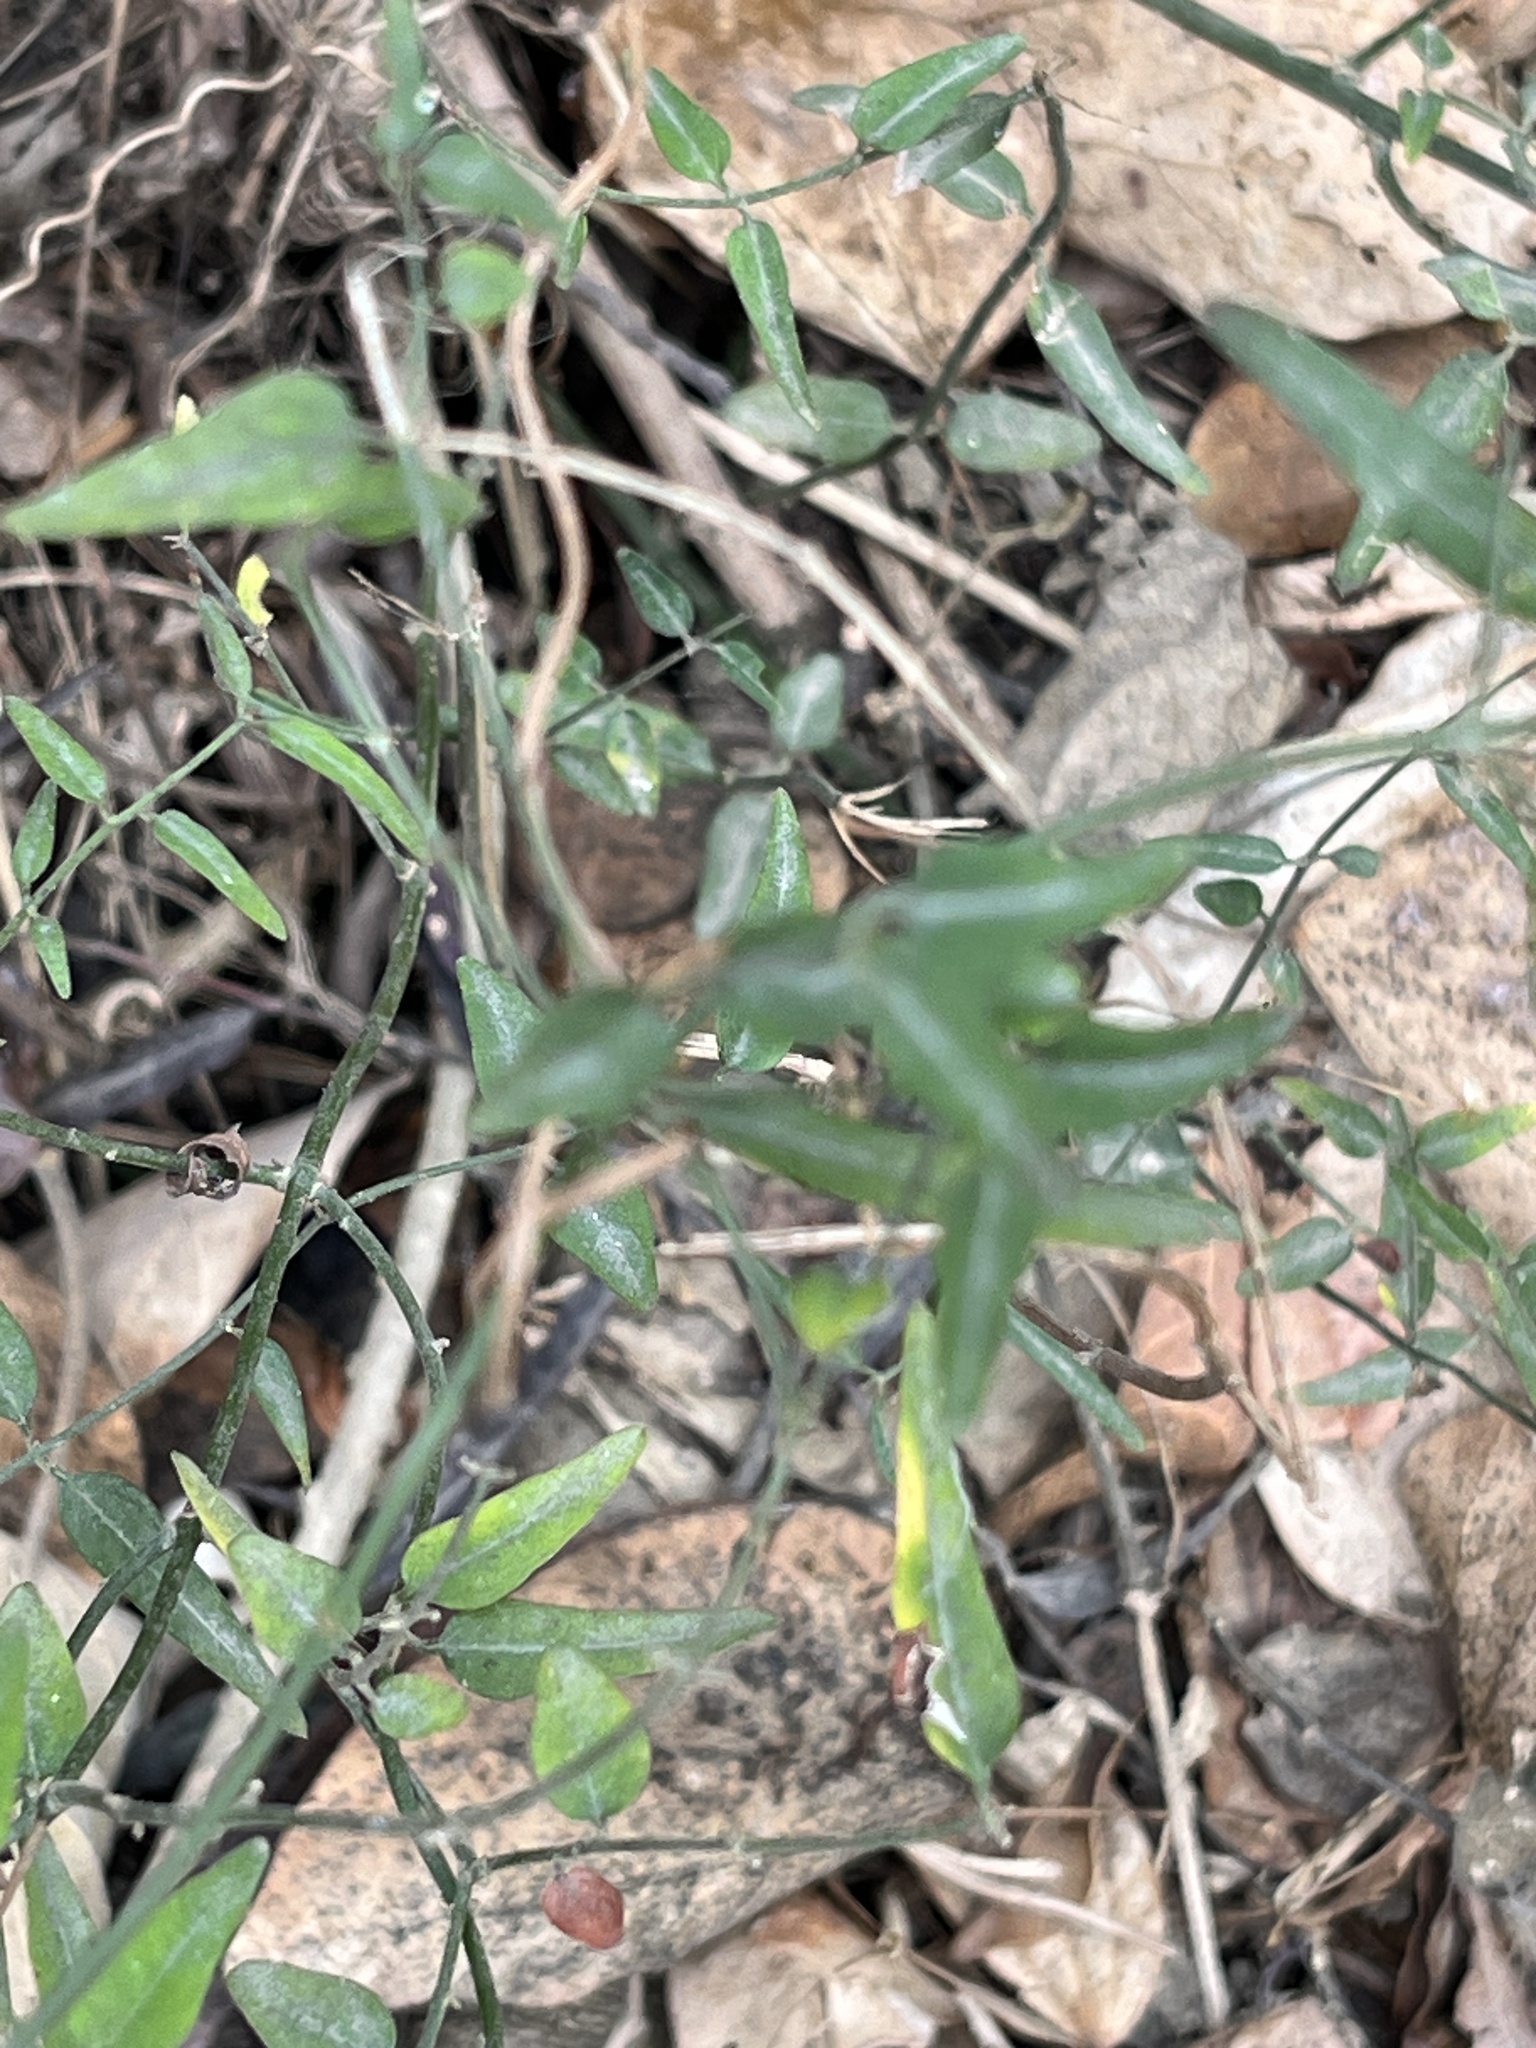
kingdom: Plantae
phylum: Tracheophyta
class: Magnoliopsida
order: Lamiales
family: Oleaceae
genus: Jasminum
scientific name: Jasminum nervosum
